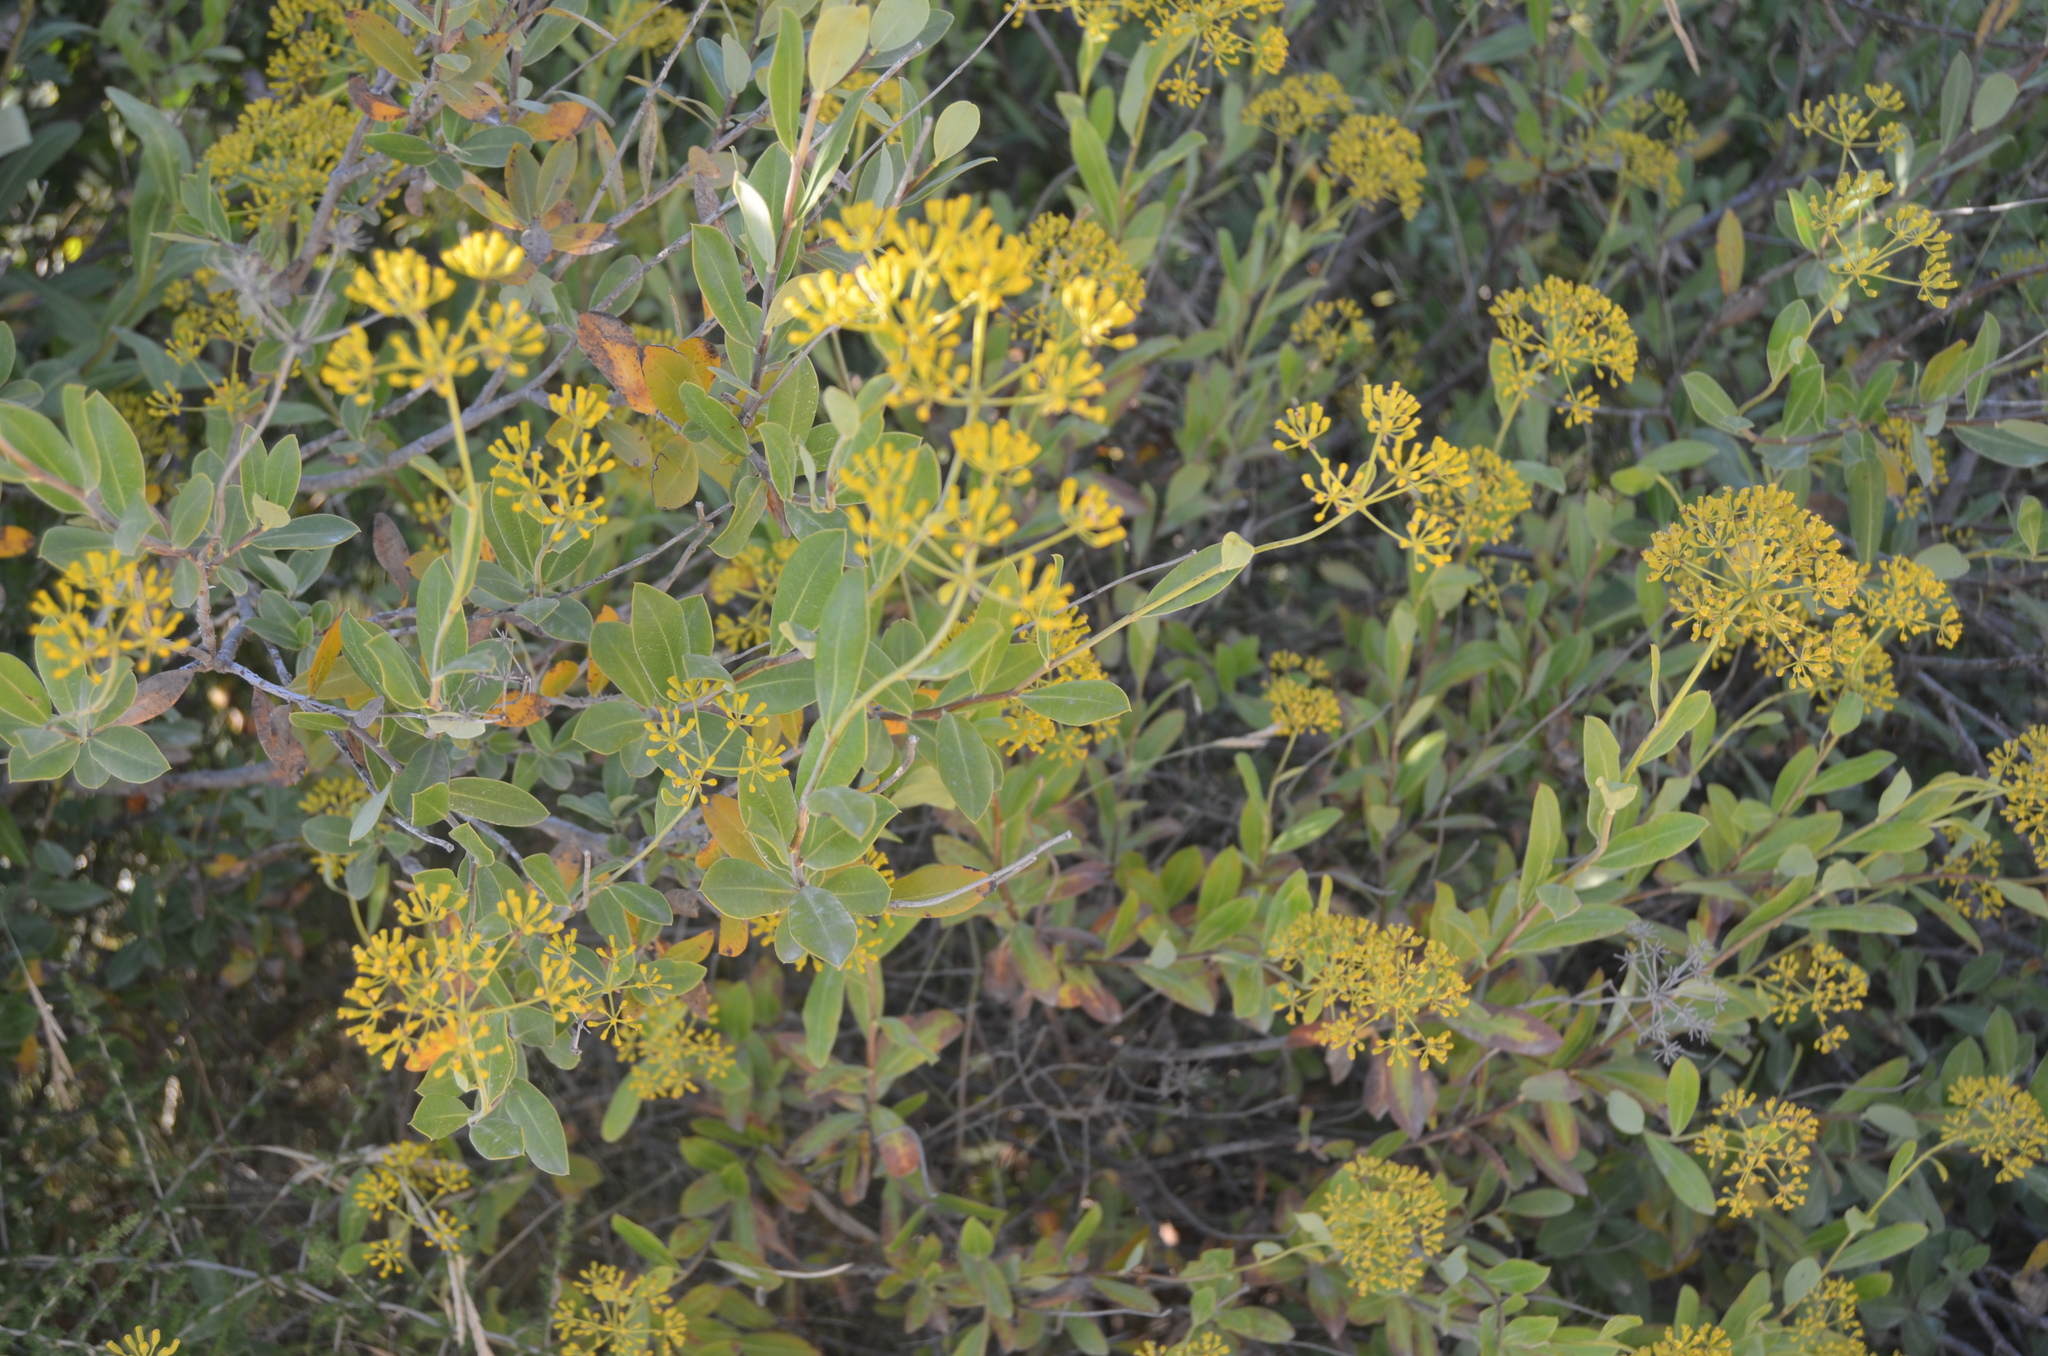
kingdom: Plantae
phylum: Tracheophyta
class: Magnoliopsida
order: Apiales
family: Apiaceae
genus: Bupleurum
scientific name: Bupleurum fruticosum
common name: Shrubby hare's-ear
